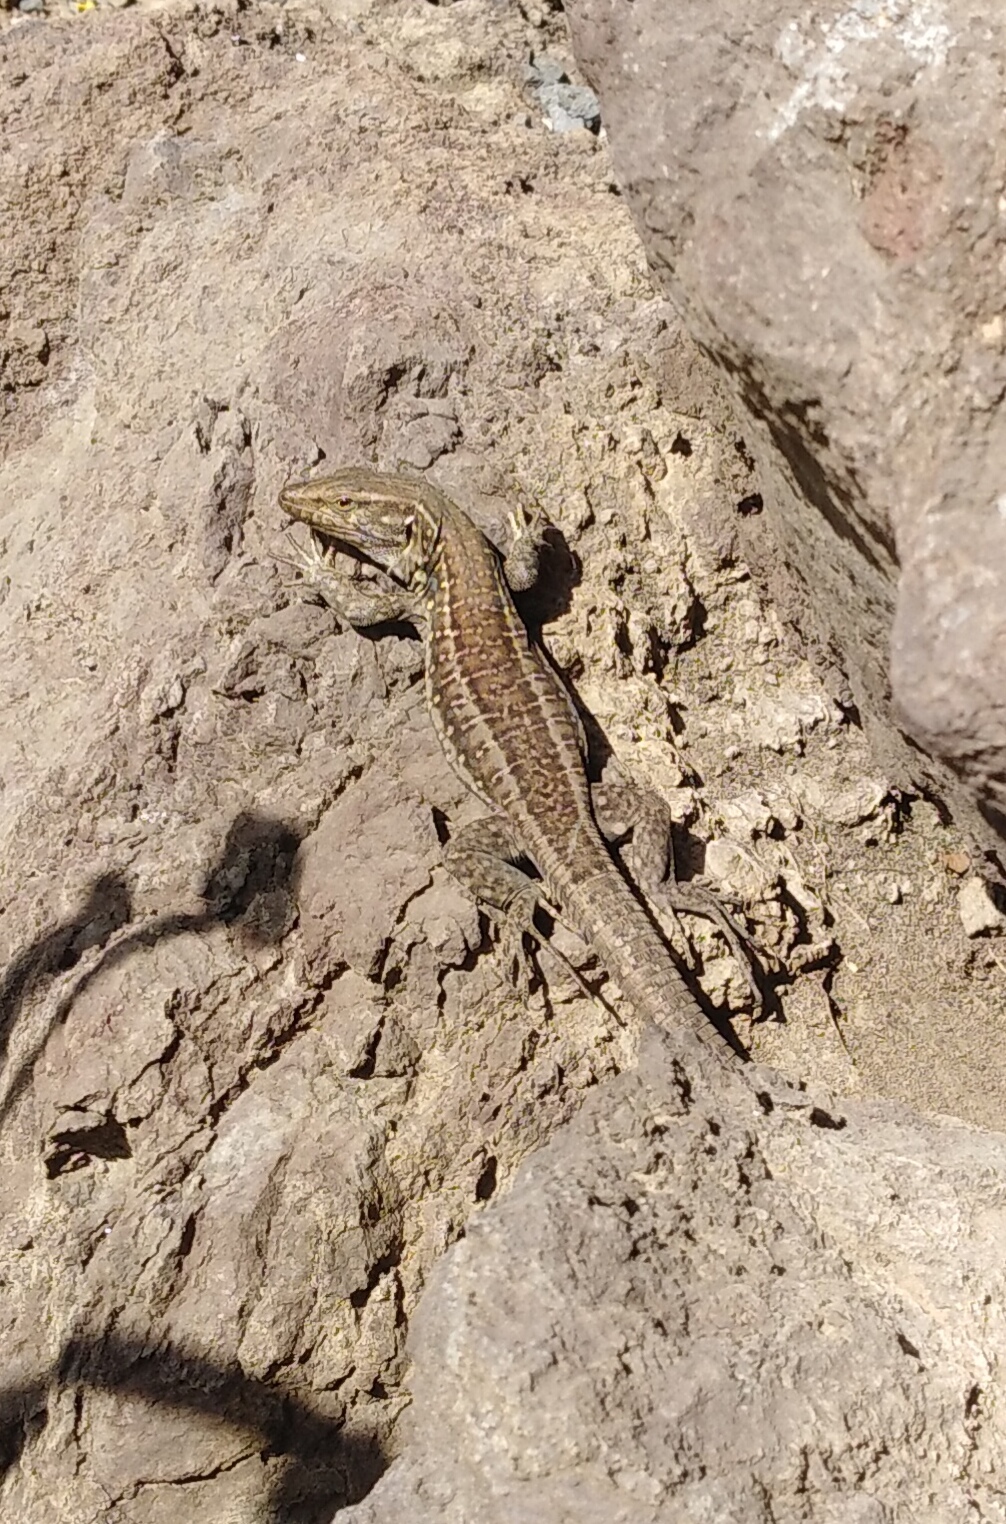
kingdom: Animalia
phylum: Chordata
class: Squamata
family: Lacertidae
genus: Gallotia
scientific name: Gallotia galloti
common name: Gallot's lizard
